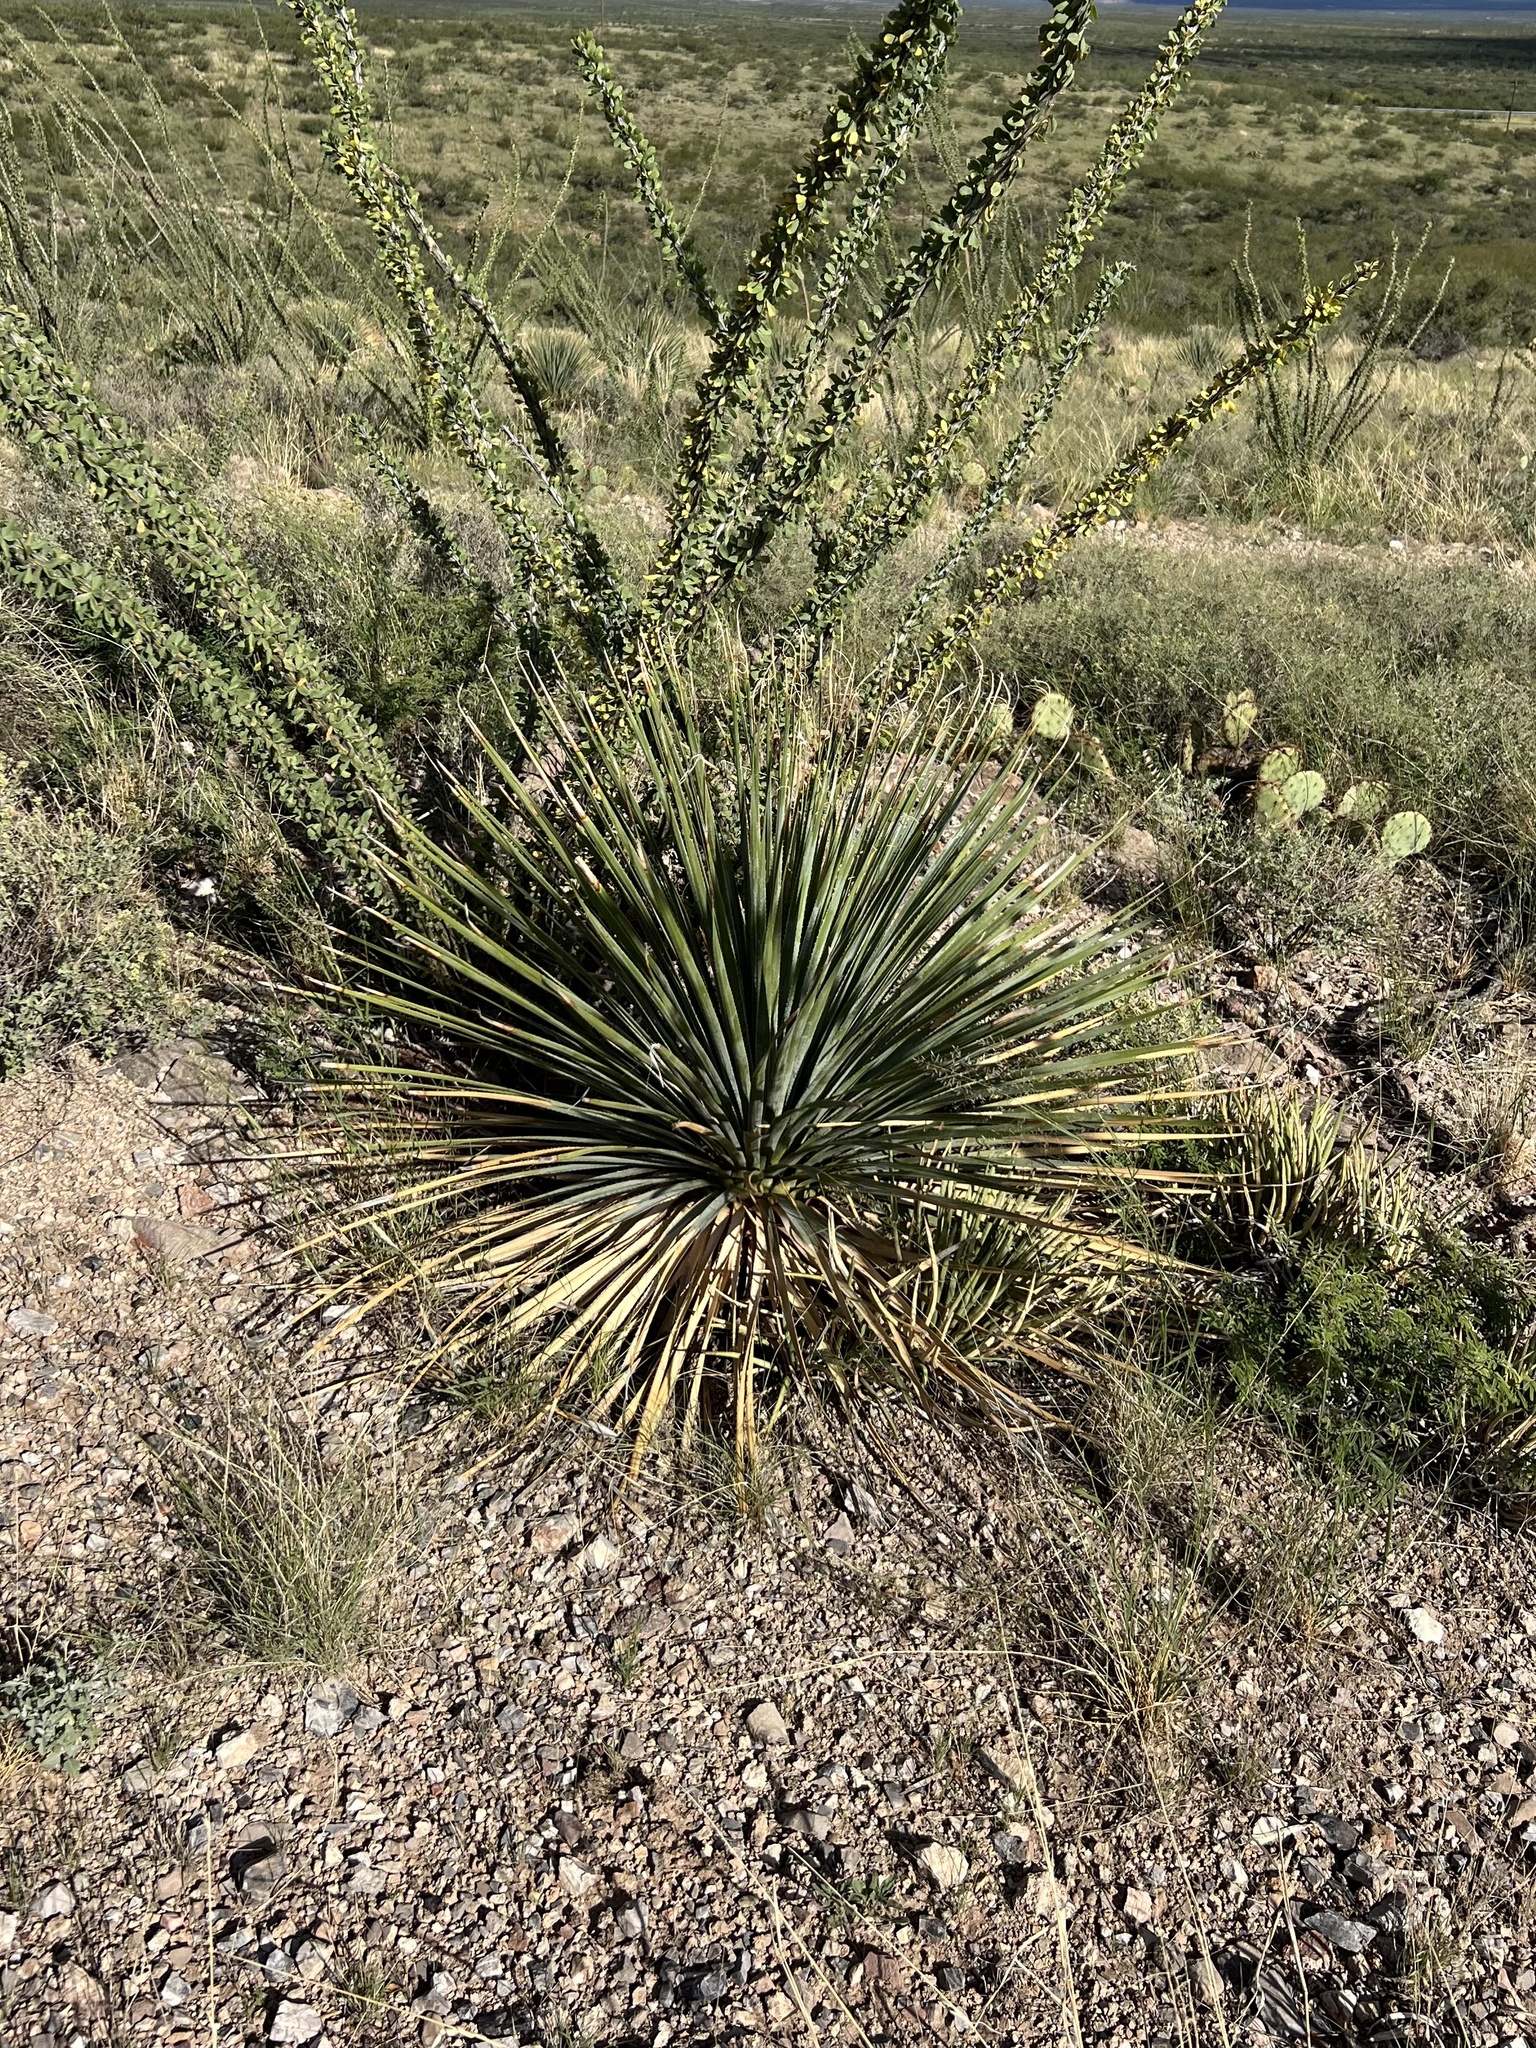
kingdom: Plantae
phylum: Tracheophyta
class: Liliopsida
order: Asparagales
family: Asparagaceae
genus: Dasylirion
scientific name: Dasylirion wheeleri
